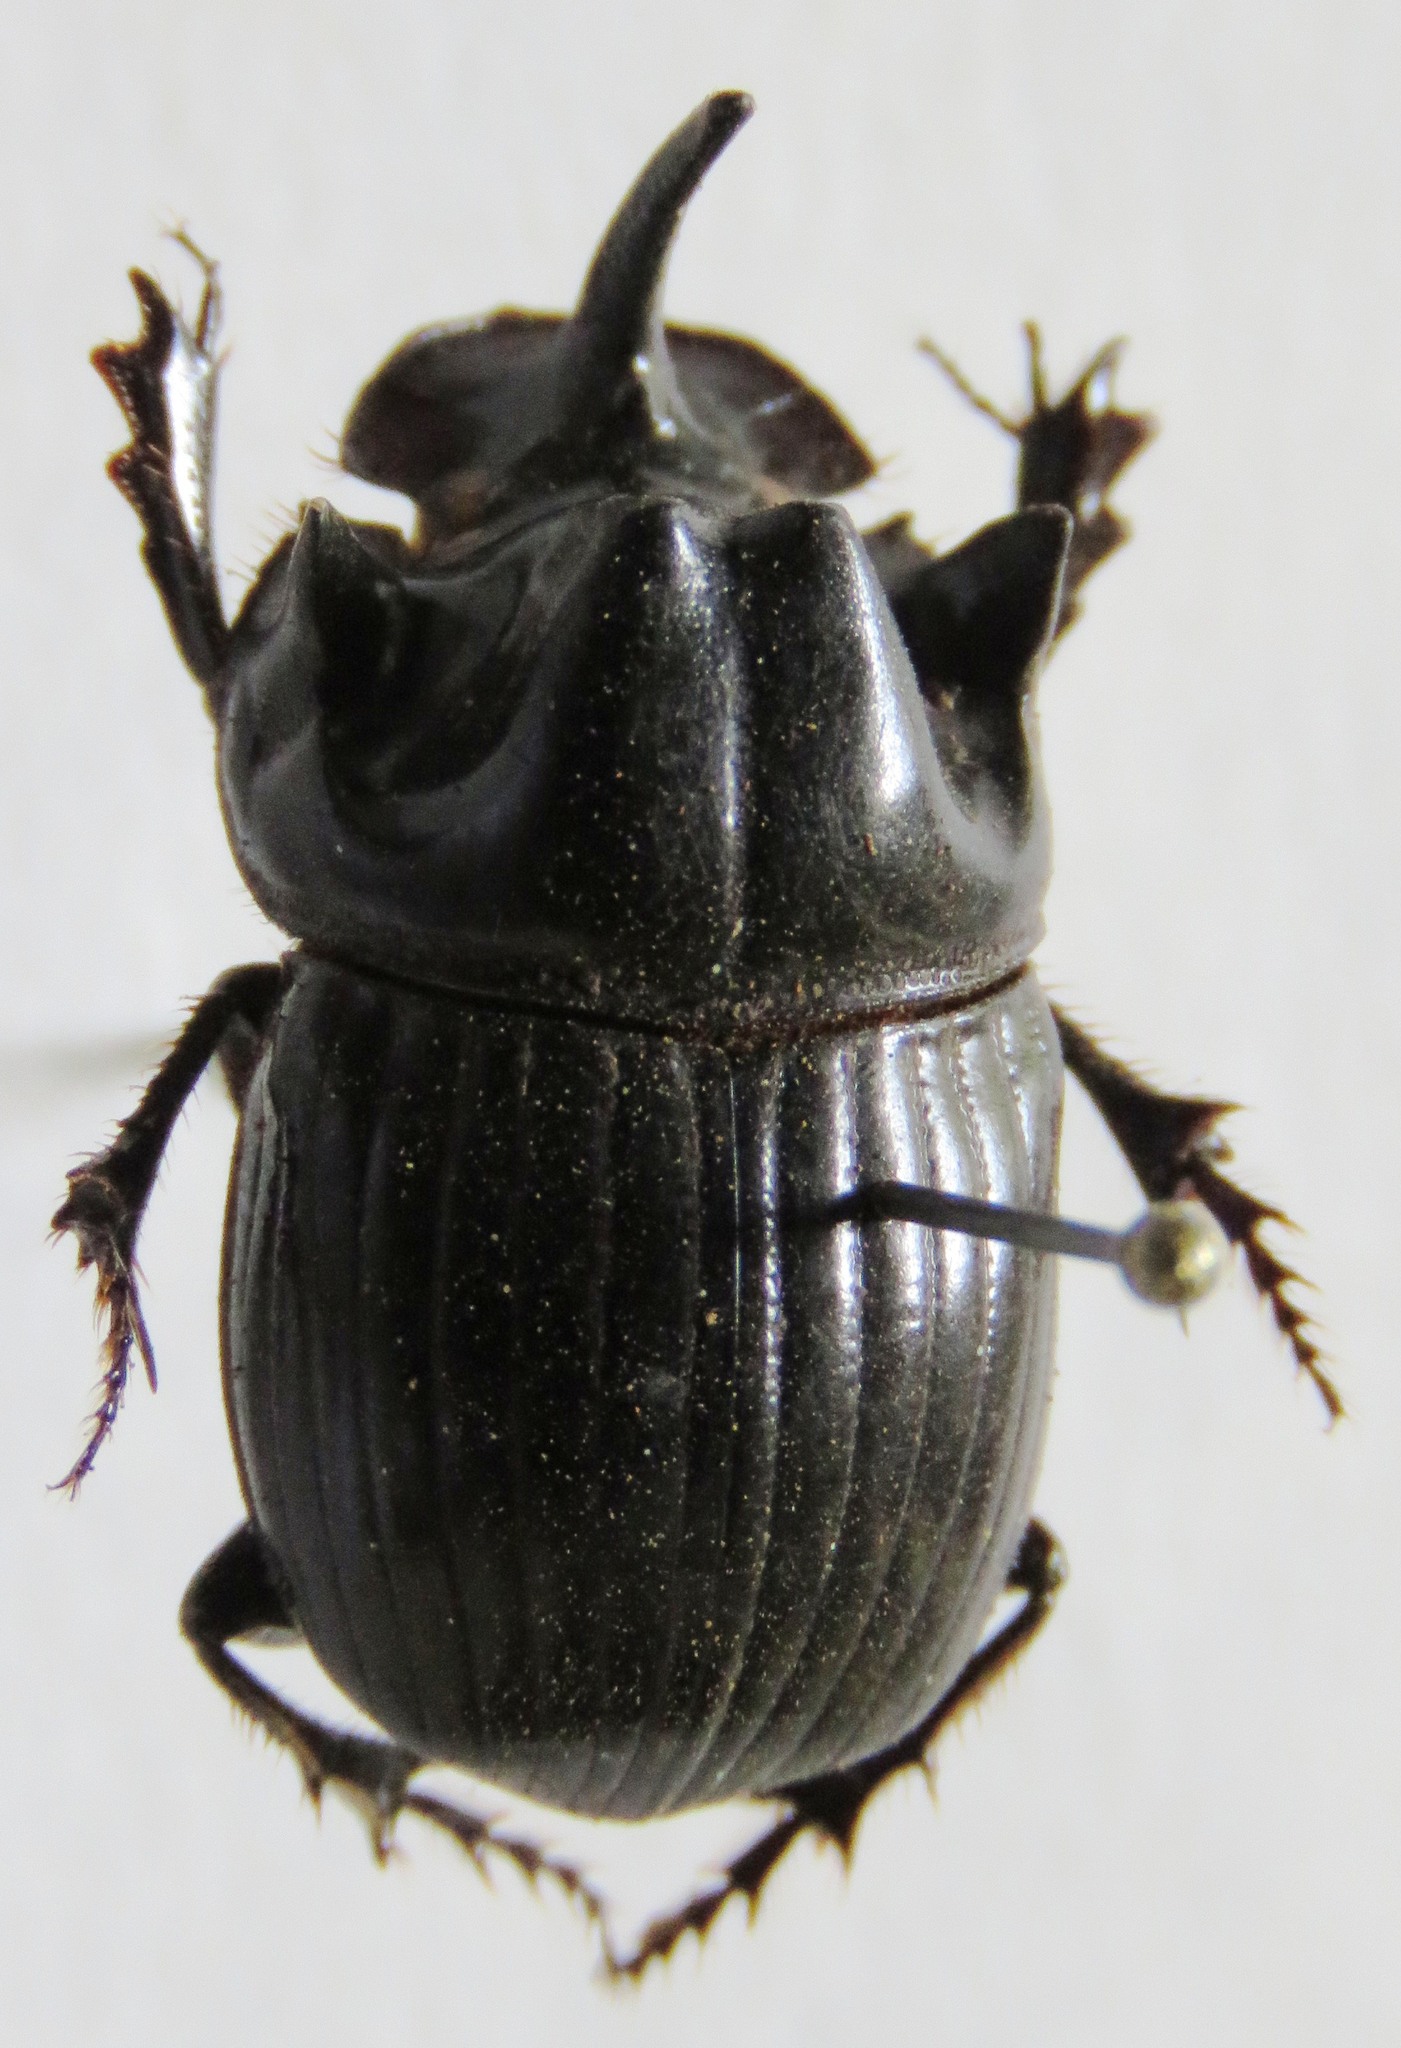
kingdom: Animalia
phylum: Arthropoda
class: Insecta
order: Coleoptera
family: Scarabaeidae
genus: Copris
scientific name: Copris lugubris
